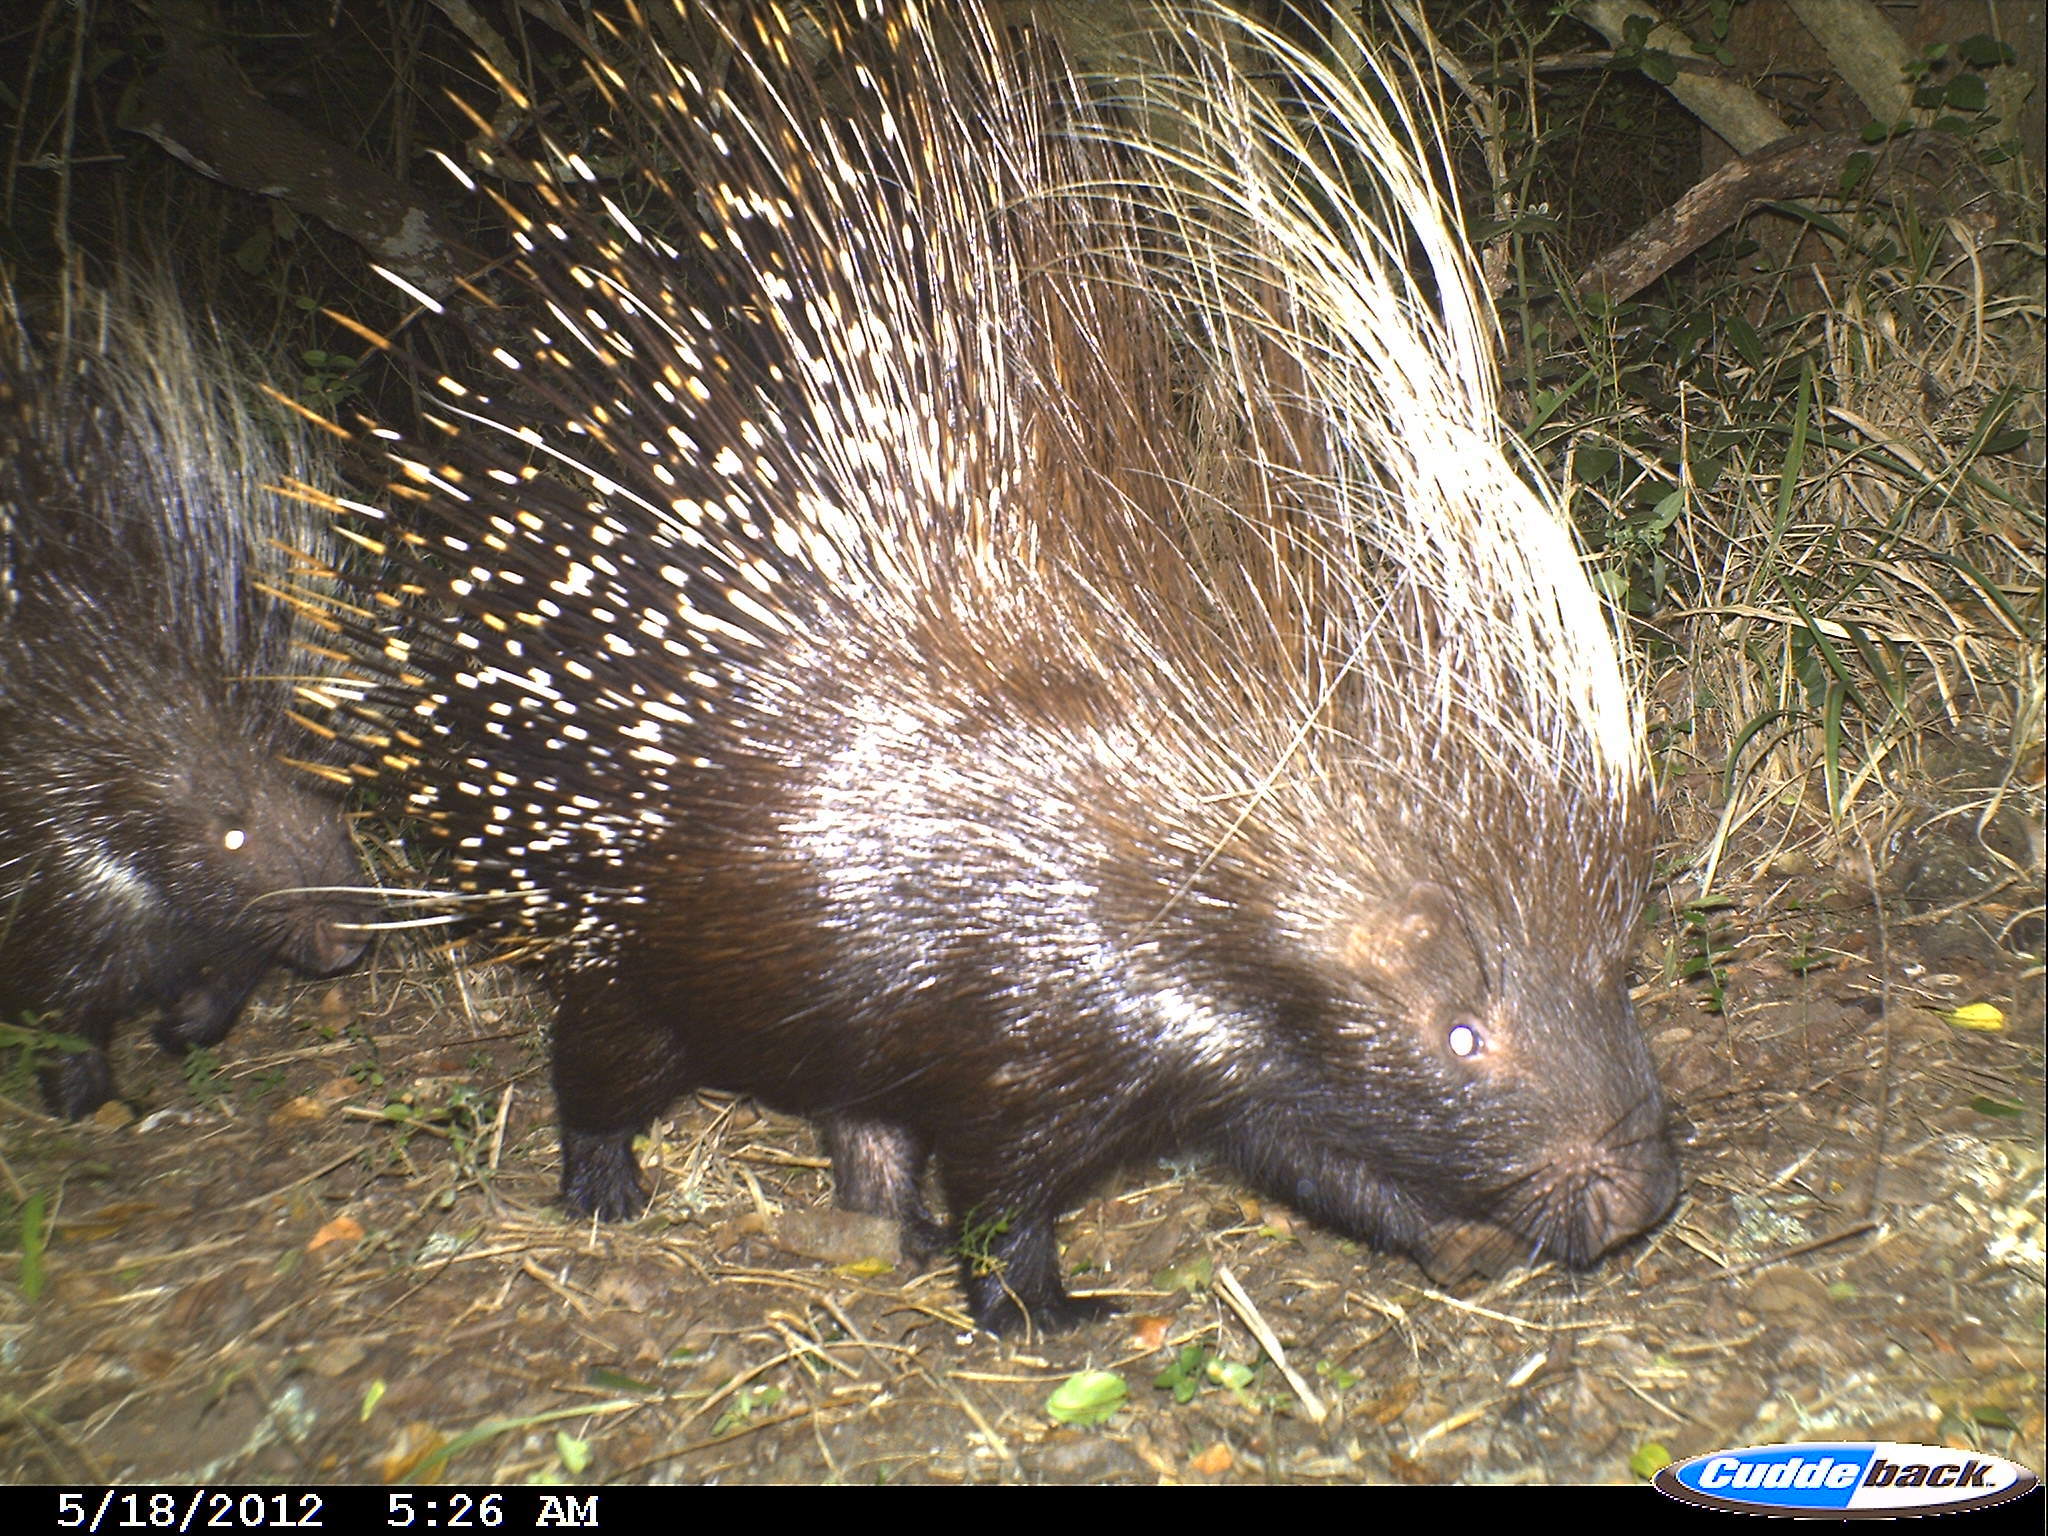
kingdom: Animalia
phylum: Chordata
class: Mammalia
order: Rodentia
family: Hystricidae
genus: Hystrix
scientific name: Hystrix africaeaustralis
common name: Cape porcupine
